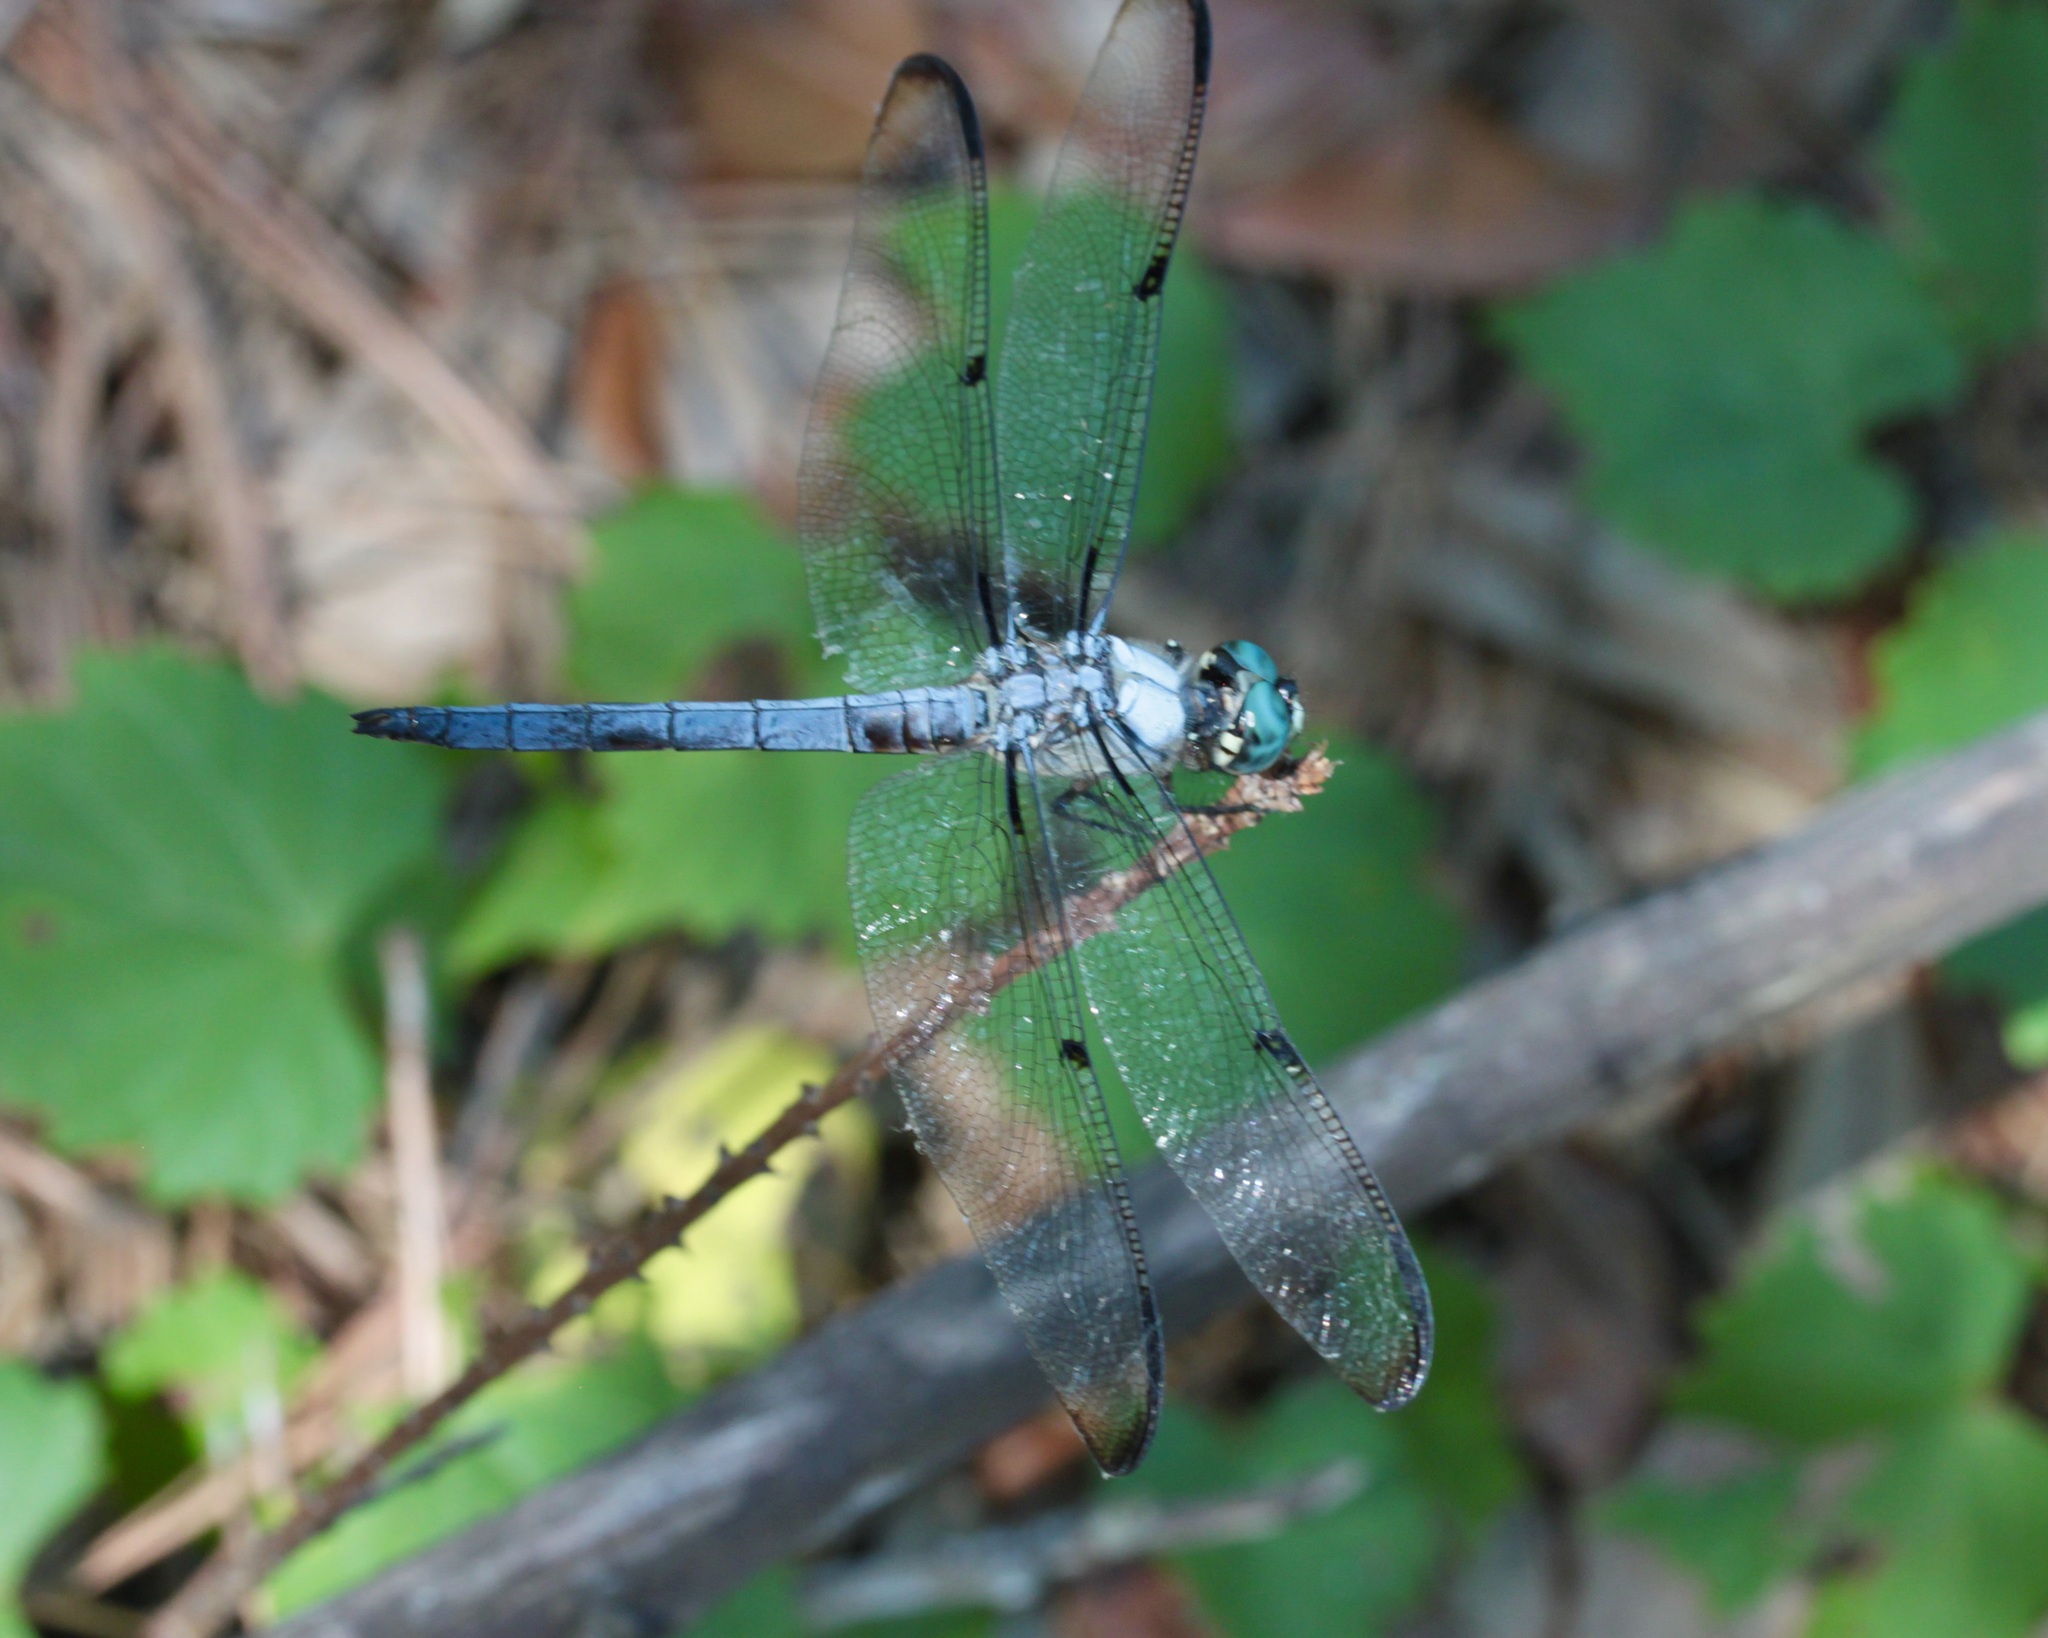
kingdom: Animalia
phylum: Arthropoda
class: Insecta
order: Odonata
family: Libellulidae
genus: Libellula
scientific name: Libellula vibrans
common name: Great blue skimmer
